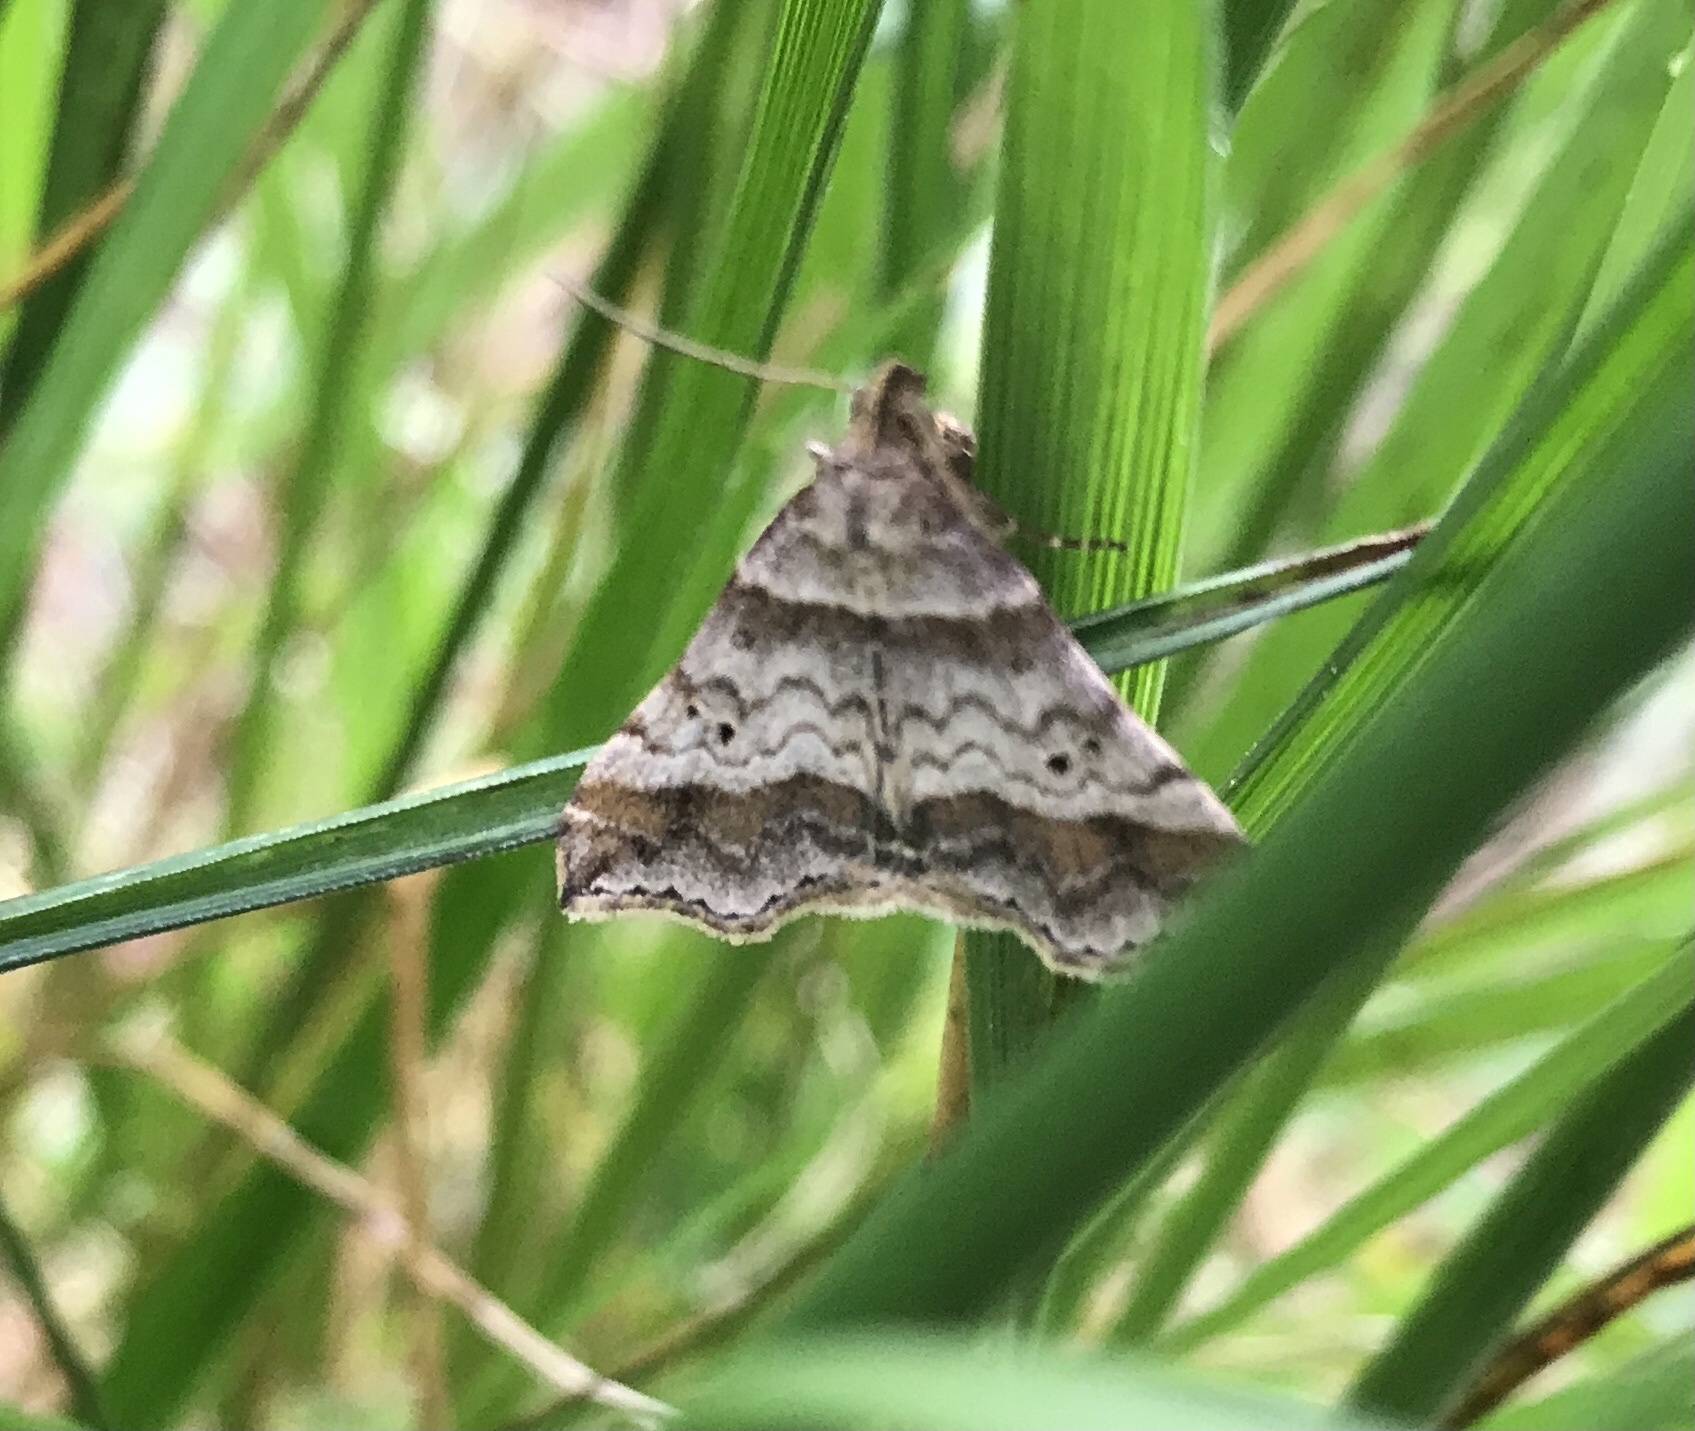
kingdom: Animalia
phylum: Arthropoda
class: Insecta
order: Lepidoptera
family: Erebidae
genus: Phaeolita
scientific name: Phaeolita pyramusalis
